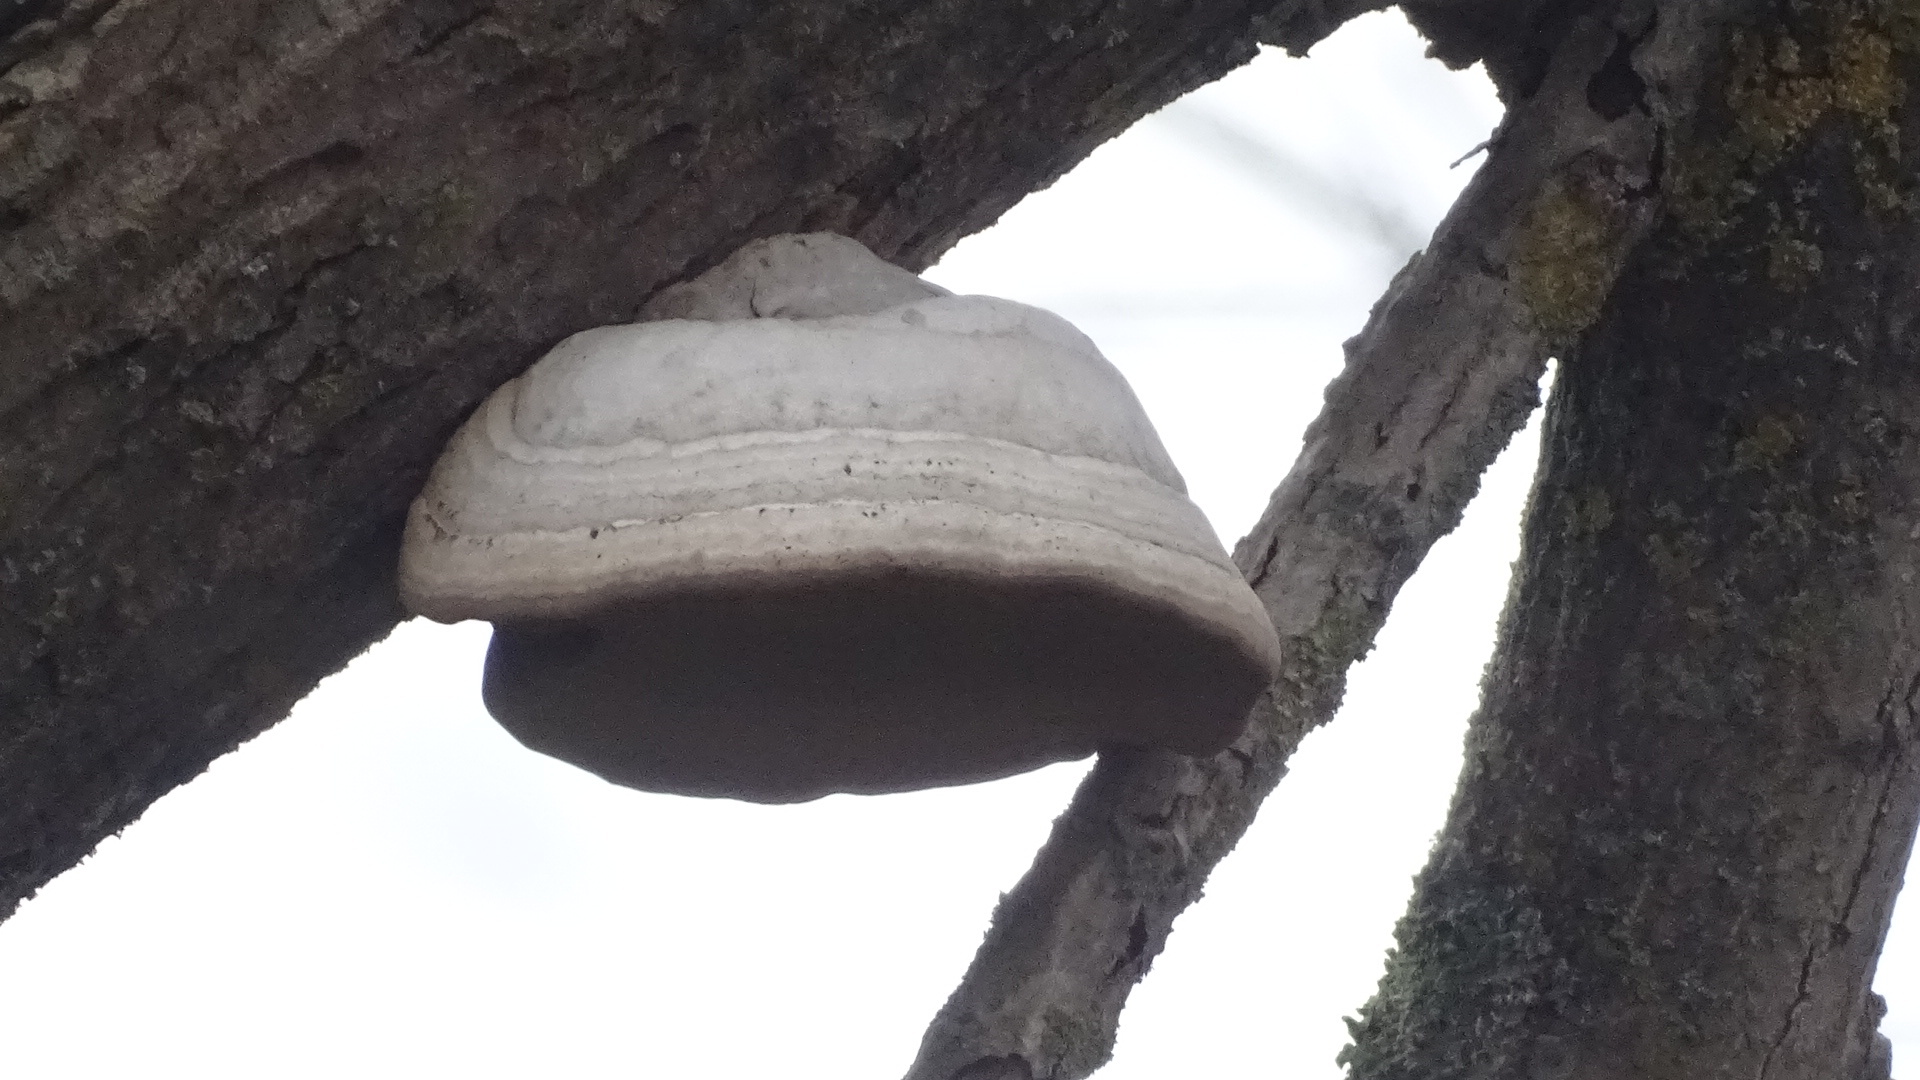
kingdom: Fungi
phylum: Basidiomycota
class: Agaricomycetes
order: Polyporales
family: Polyporaceae
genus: Fomes
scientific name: Fomes fomentarius
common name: Hoof fungus
